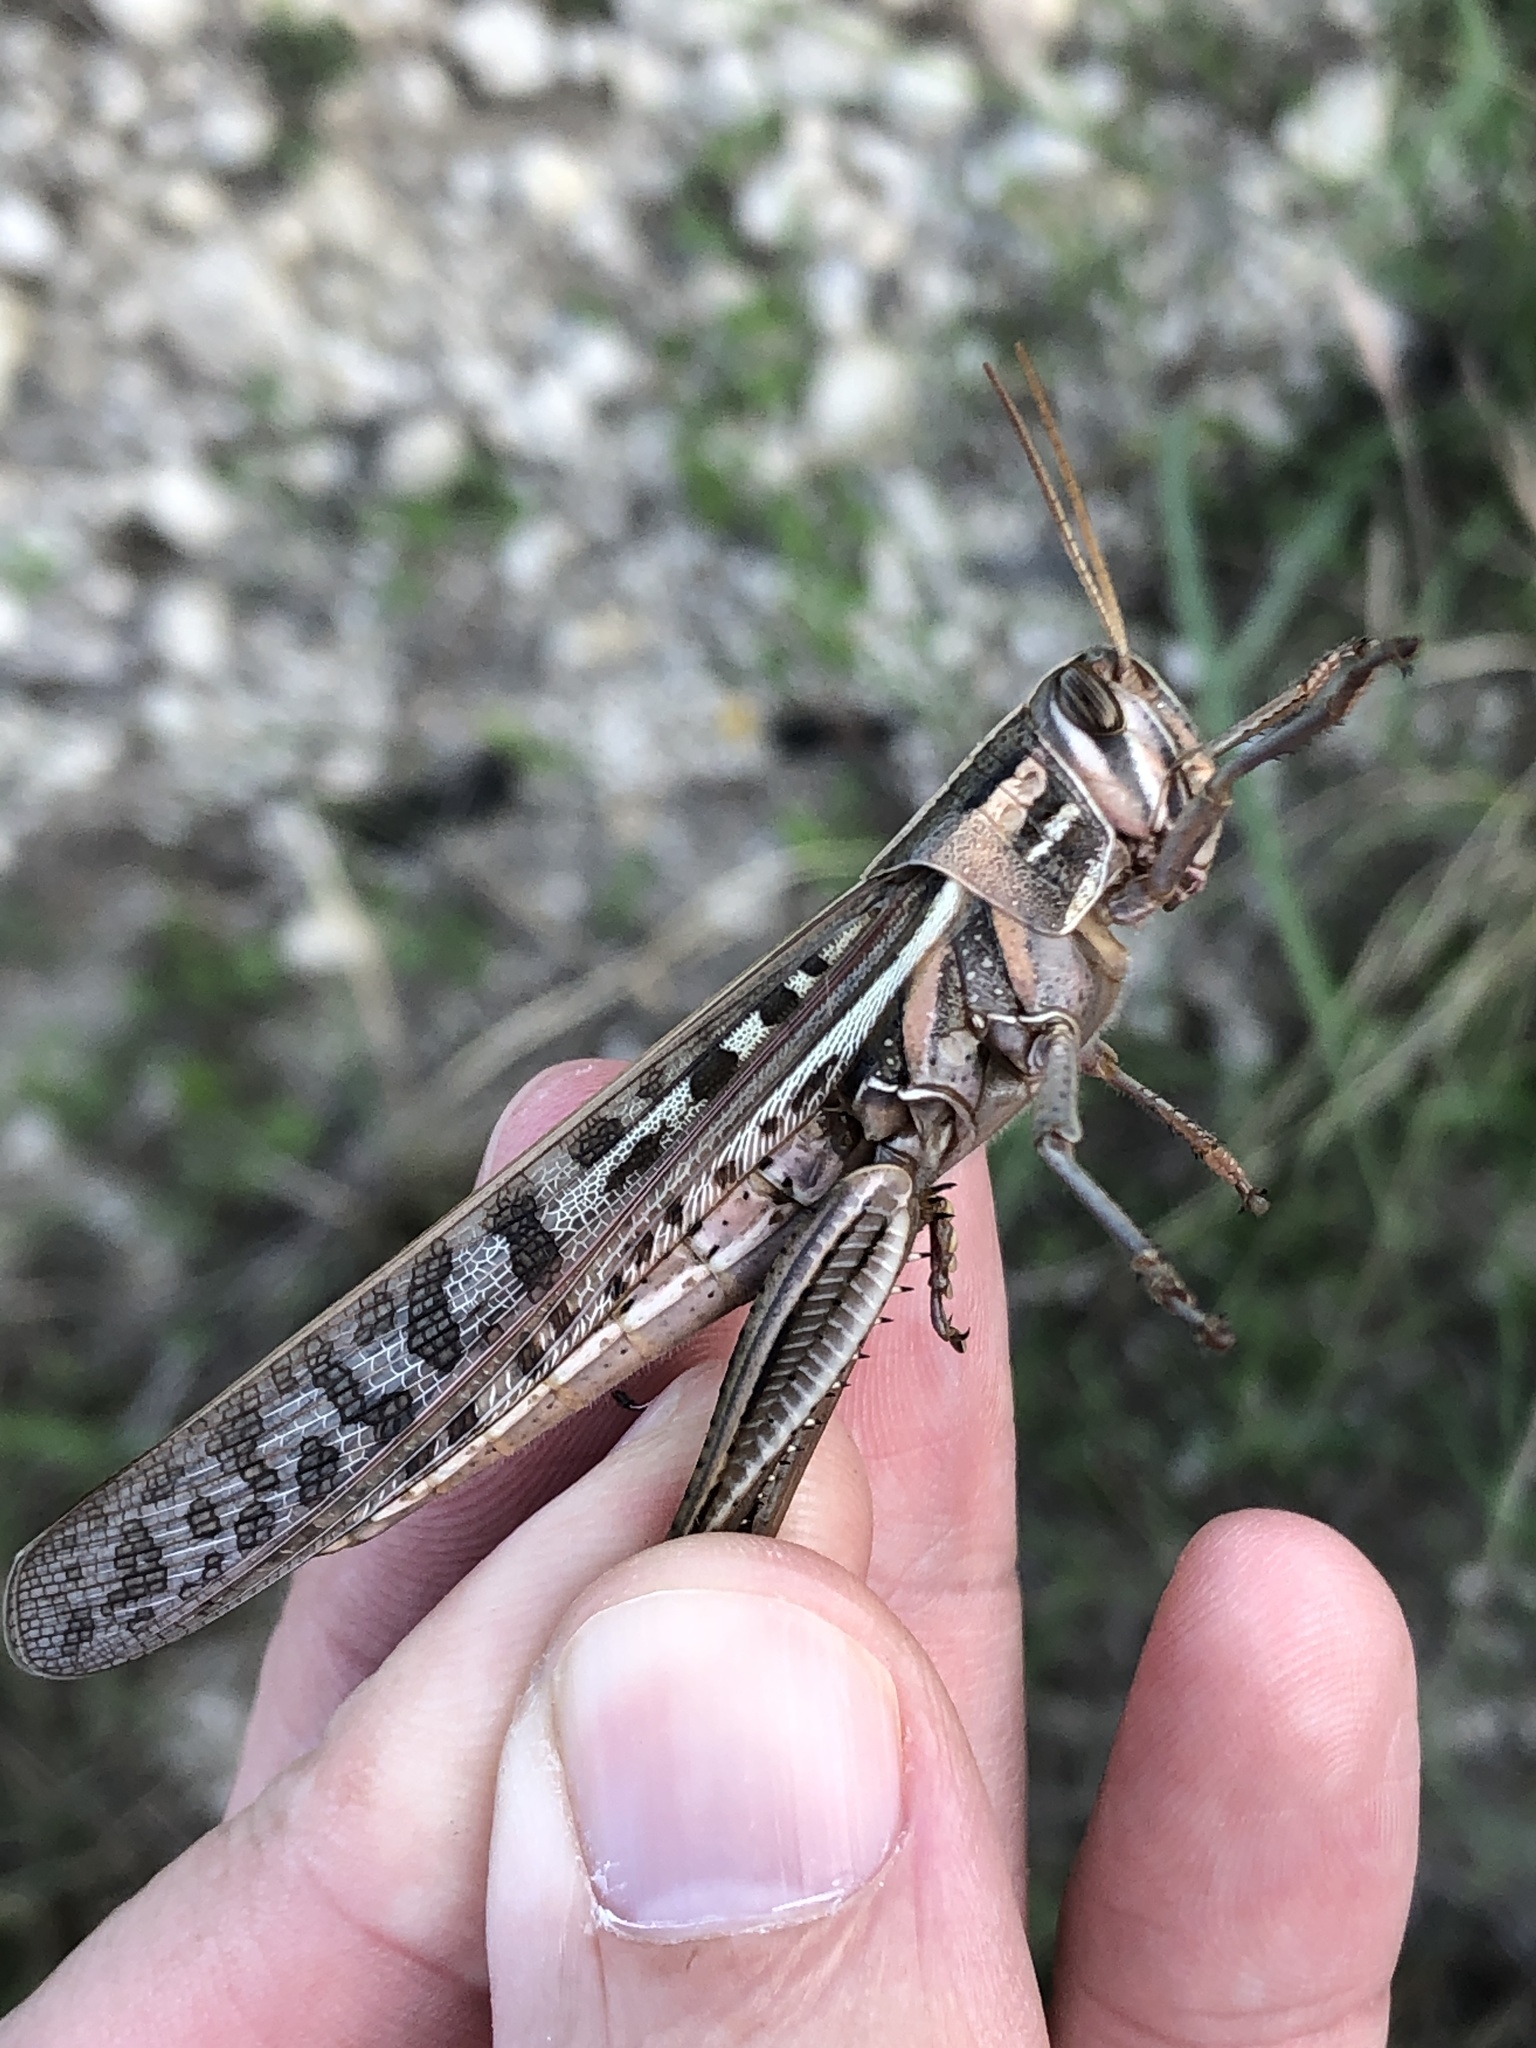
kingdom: Animalia
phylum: Arthropoda
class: Insecta
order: Orthoptera
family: Acrididae
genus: Schistocerca
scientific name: Schistocerca americana
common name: American bird locust
